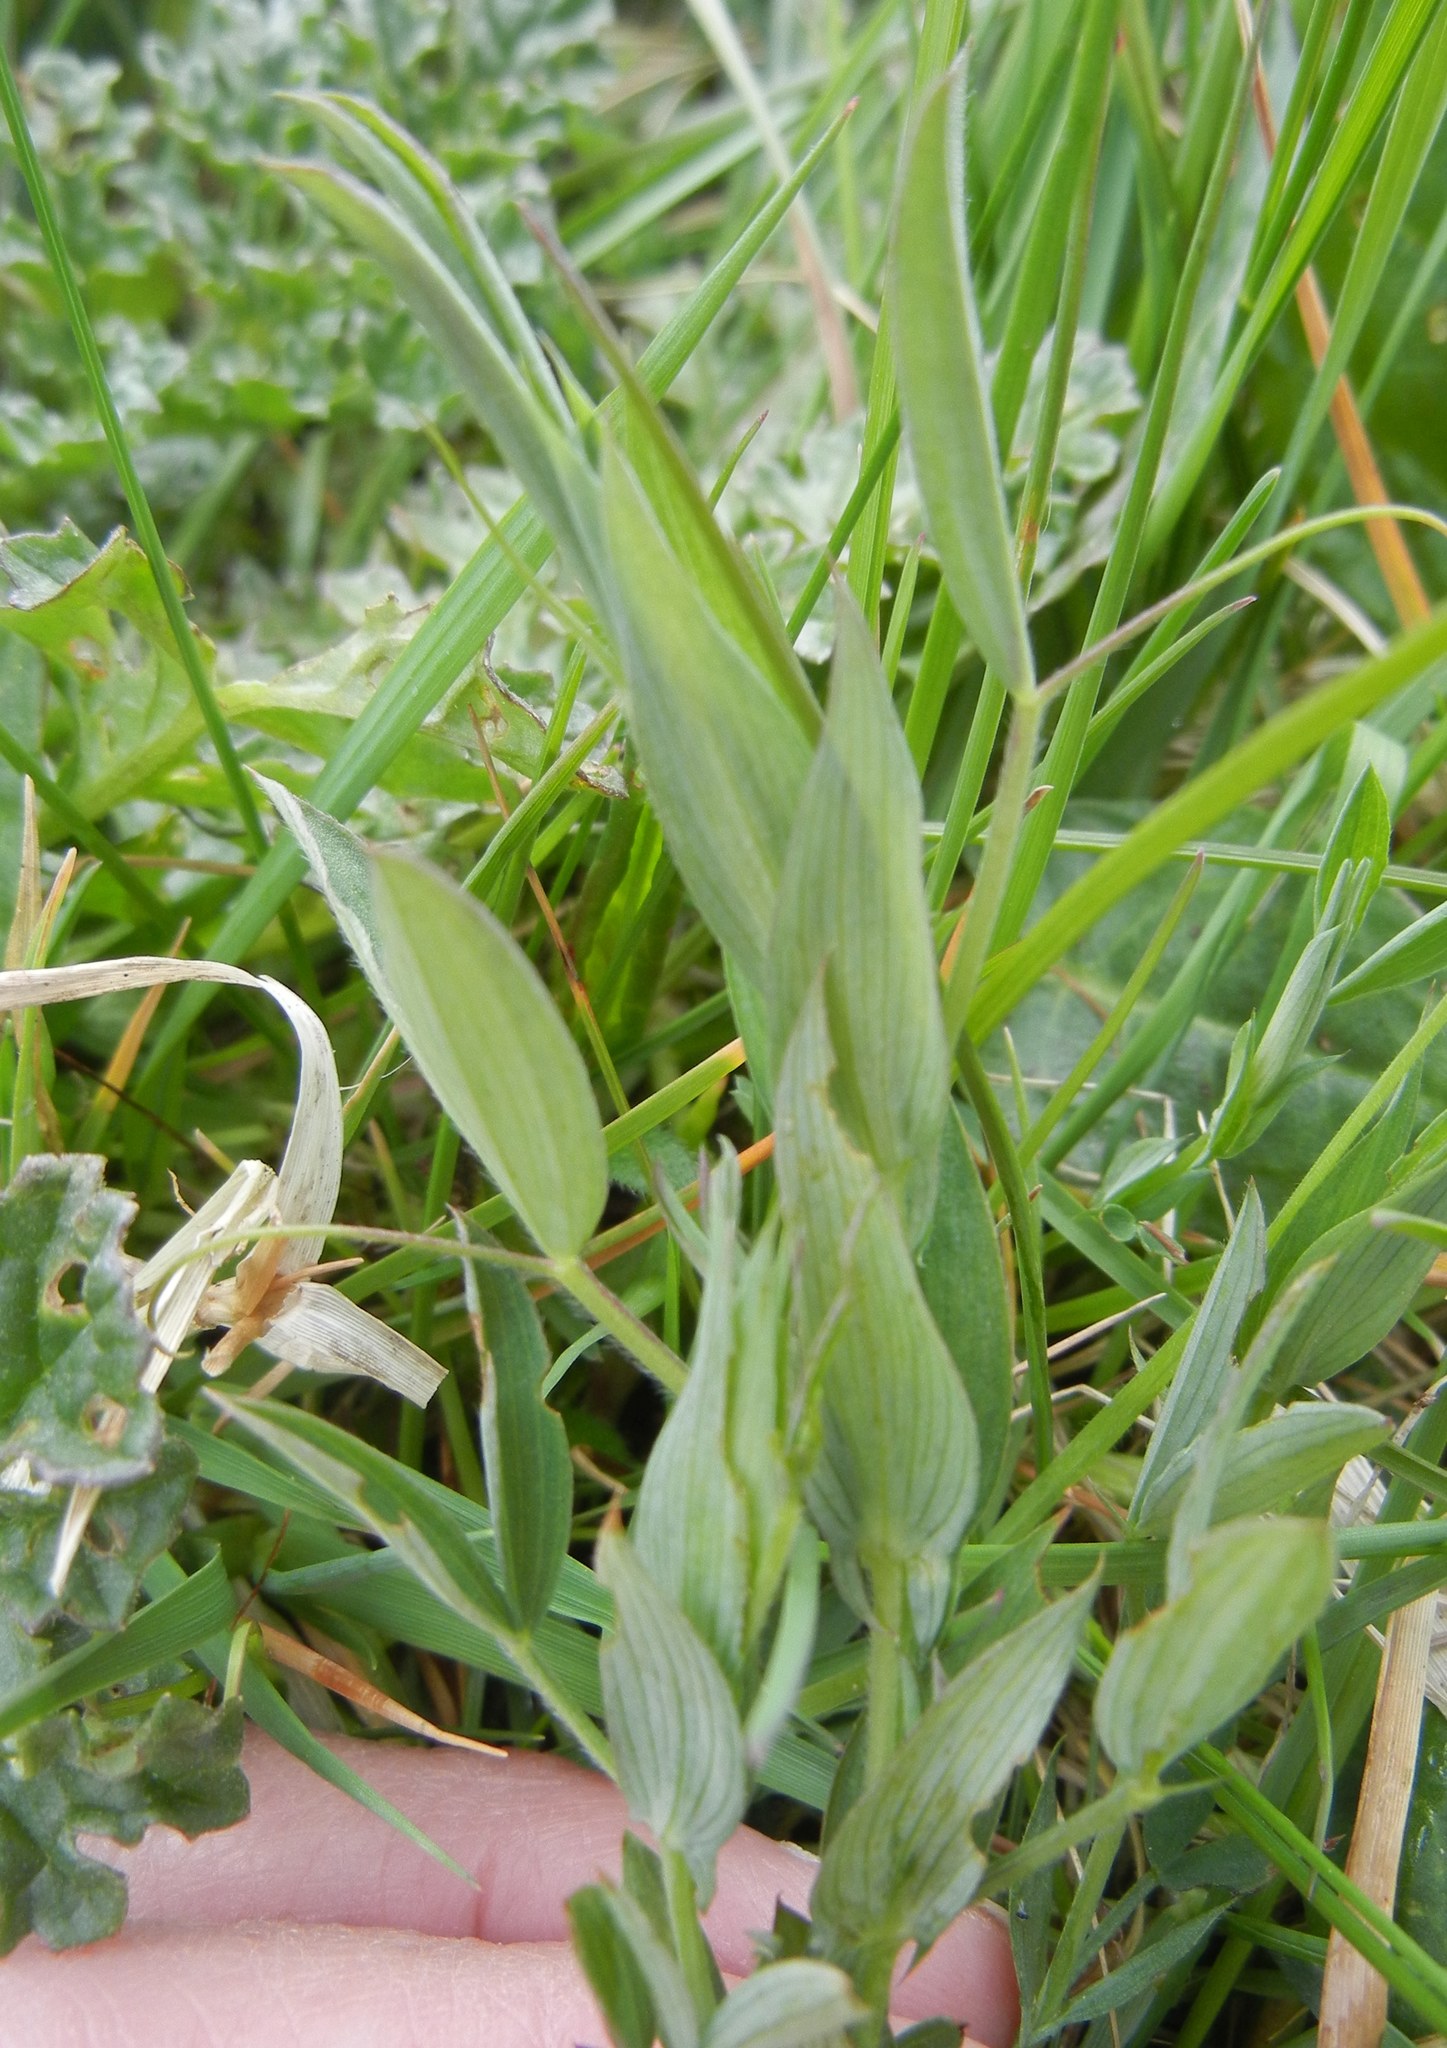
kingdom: Plantae
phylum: Tracheophyta
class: Magnoliopsida
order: Fabales
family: Fabaceae
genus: Lathyrus
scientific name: Lathyrus pratensis
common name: Meadow vetchling
